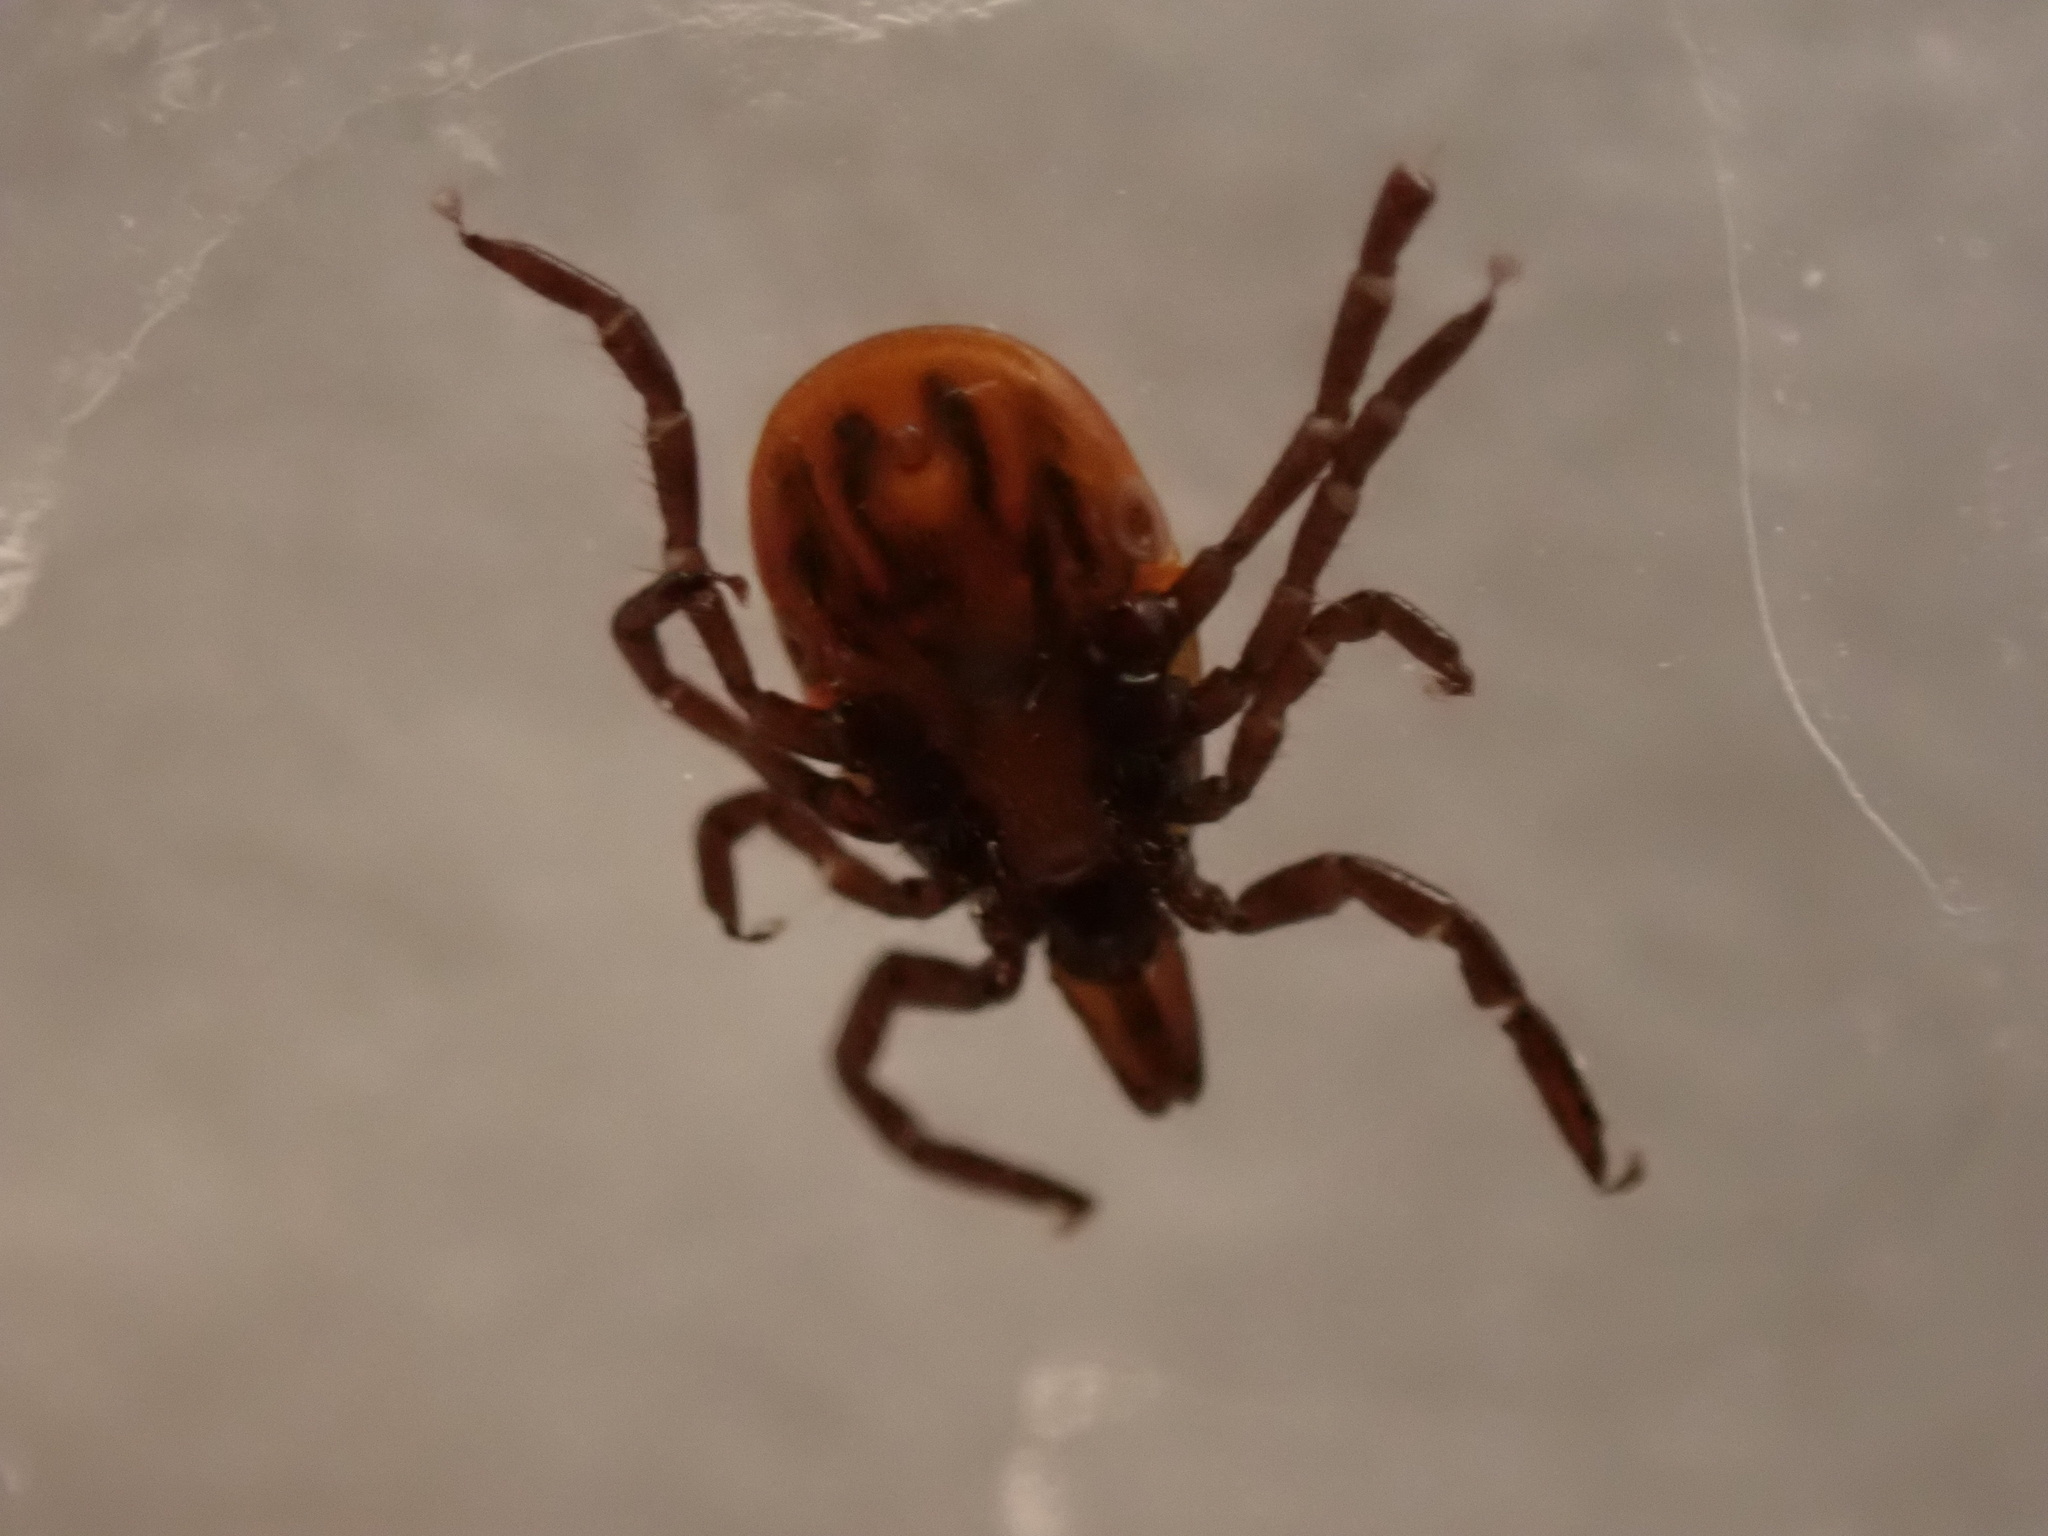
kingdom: Animalia
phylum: Arthropoda
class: Arachnida
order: Ixodida
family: Ixodidae
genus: Ixodes
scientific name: Ixodes scapularis
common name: Black legged tick
